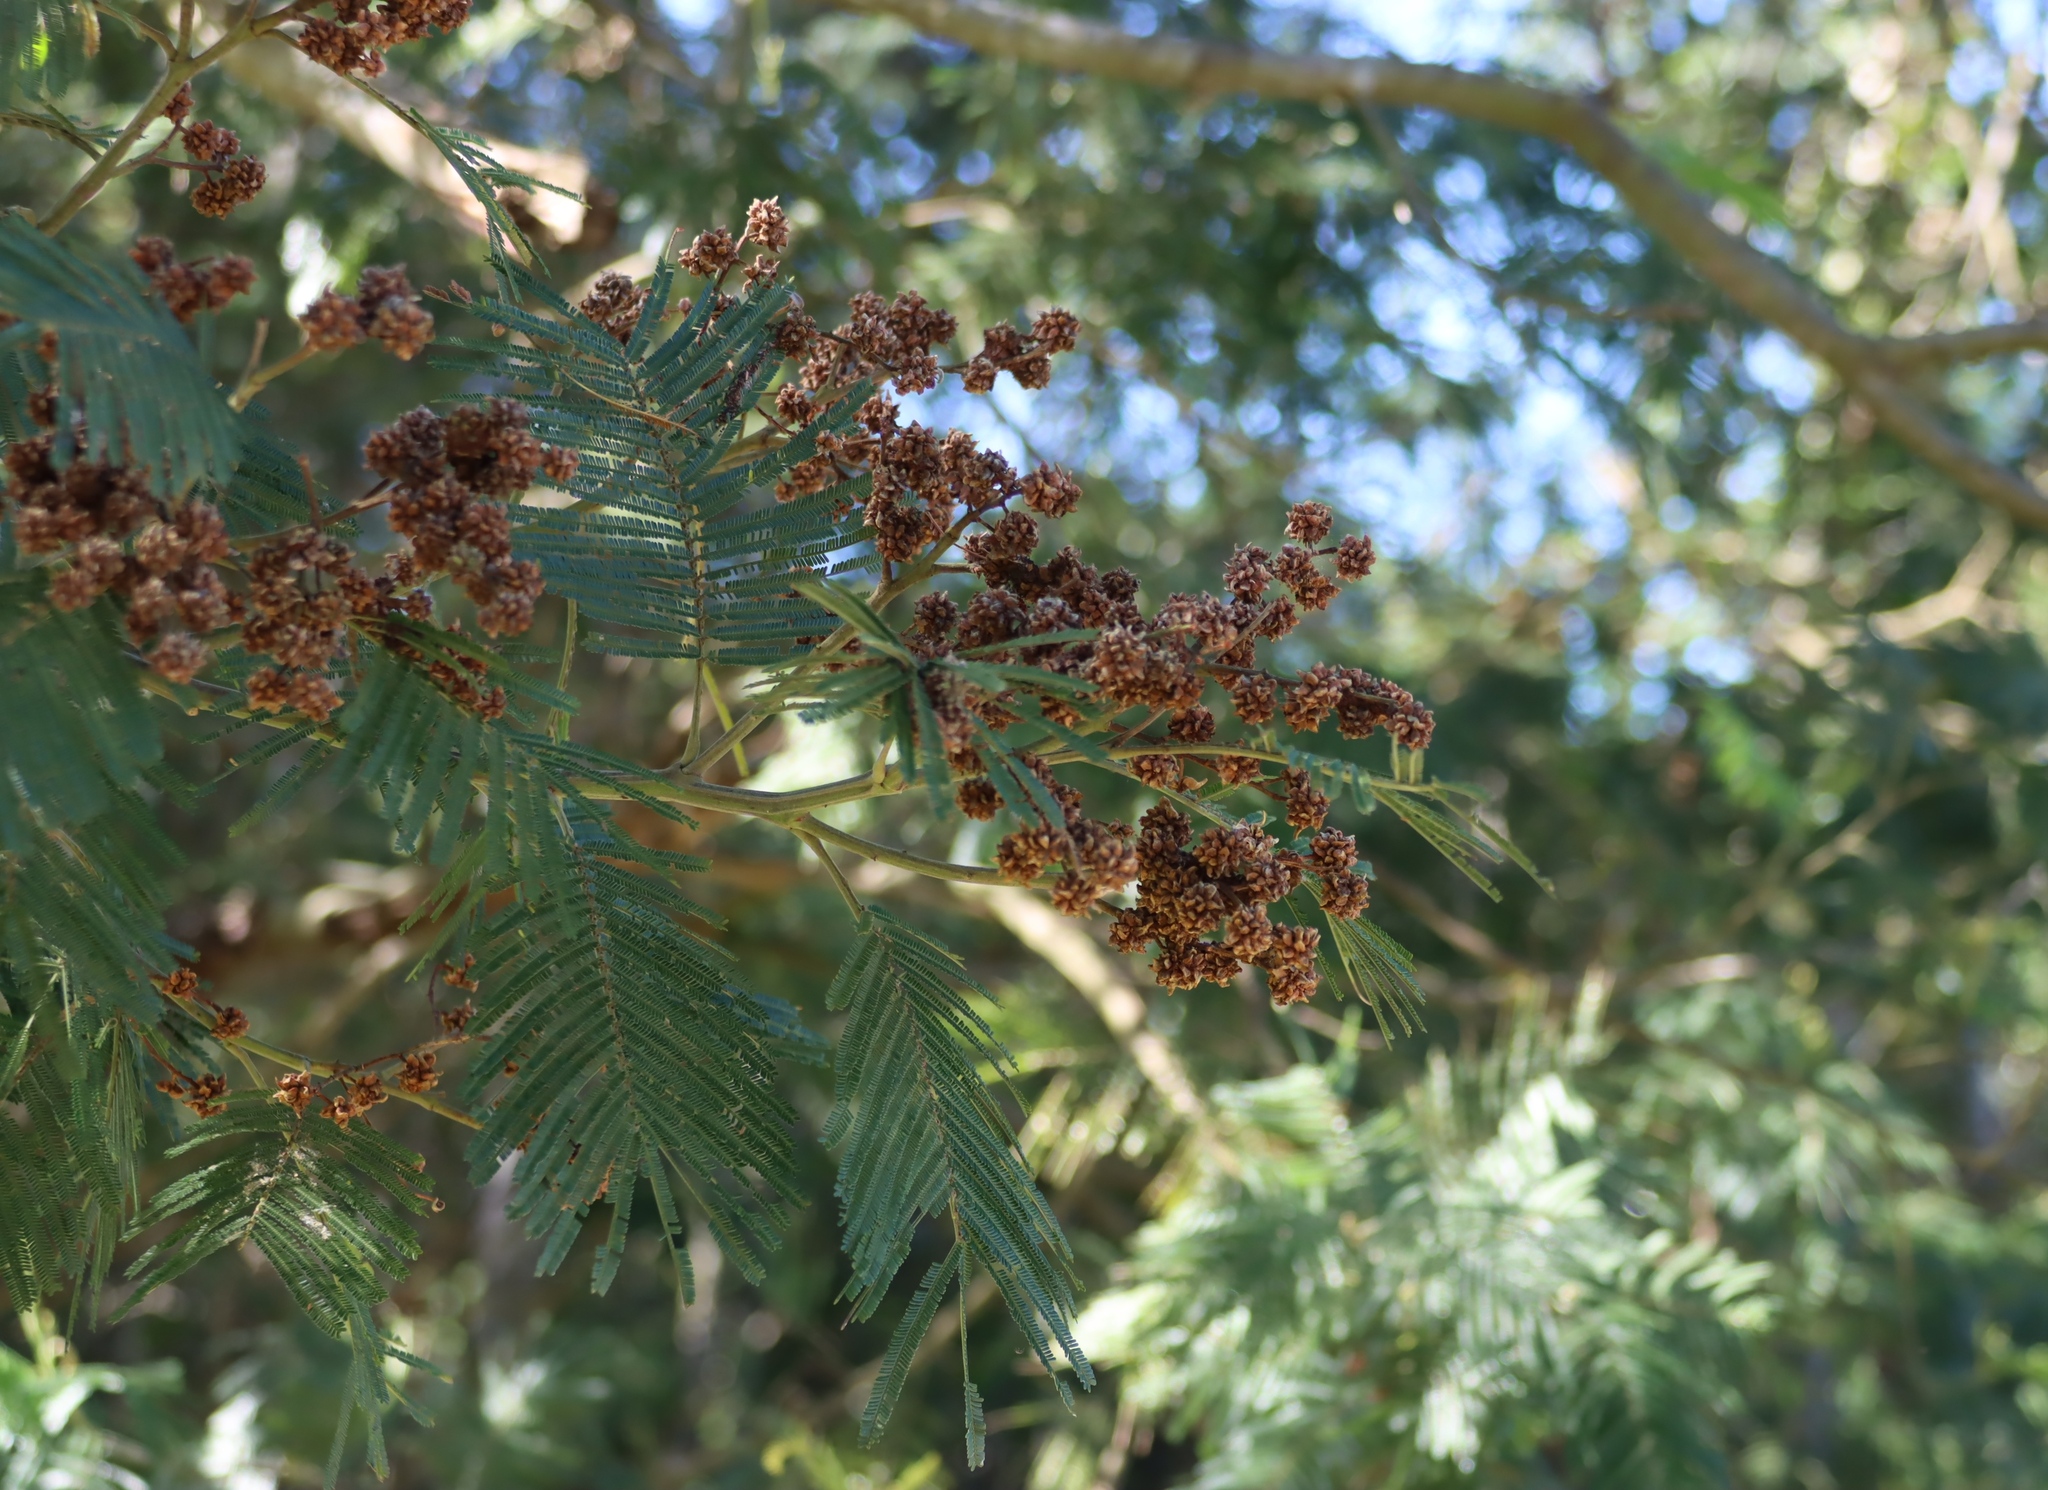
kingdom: Plantae
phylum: Tracheophyta
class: Magnoliopsida
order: Fabales
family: Fabaceae
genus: Acacia
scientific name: Acacia mearnsii
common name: Black wattle
